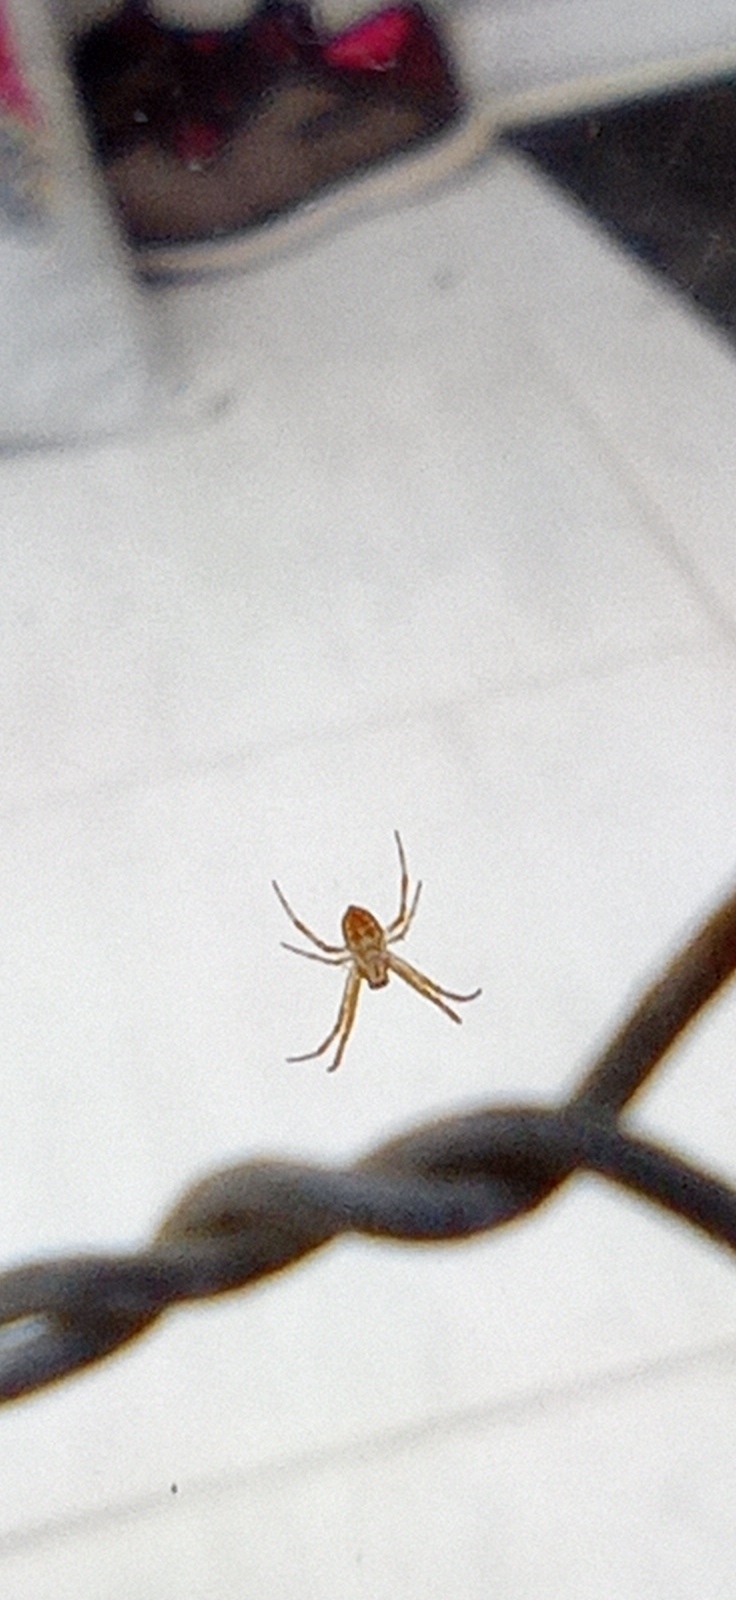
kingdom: Animalia
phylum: Arthropoda
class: Arachnida
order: Araneae
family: Araneidae
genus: Argiope
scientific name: Argiope argentata
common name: Orb weavers
